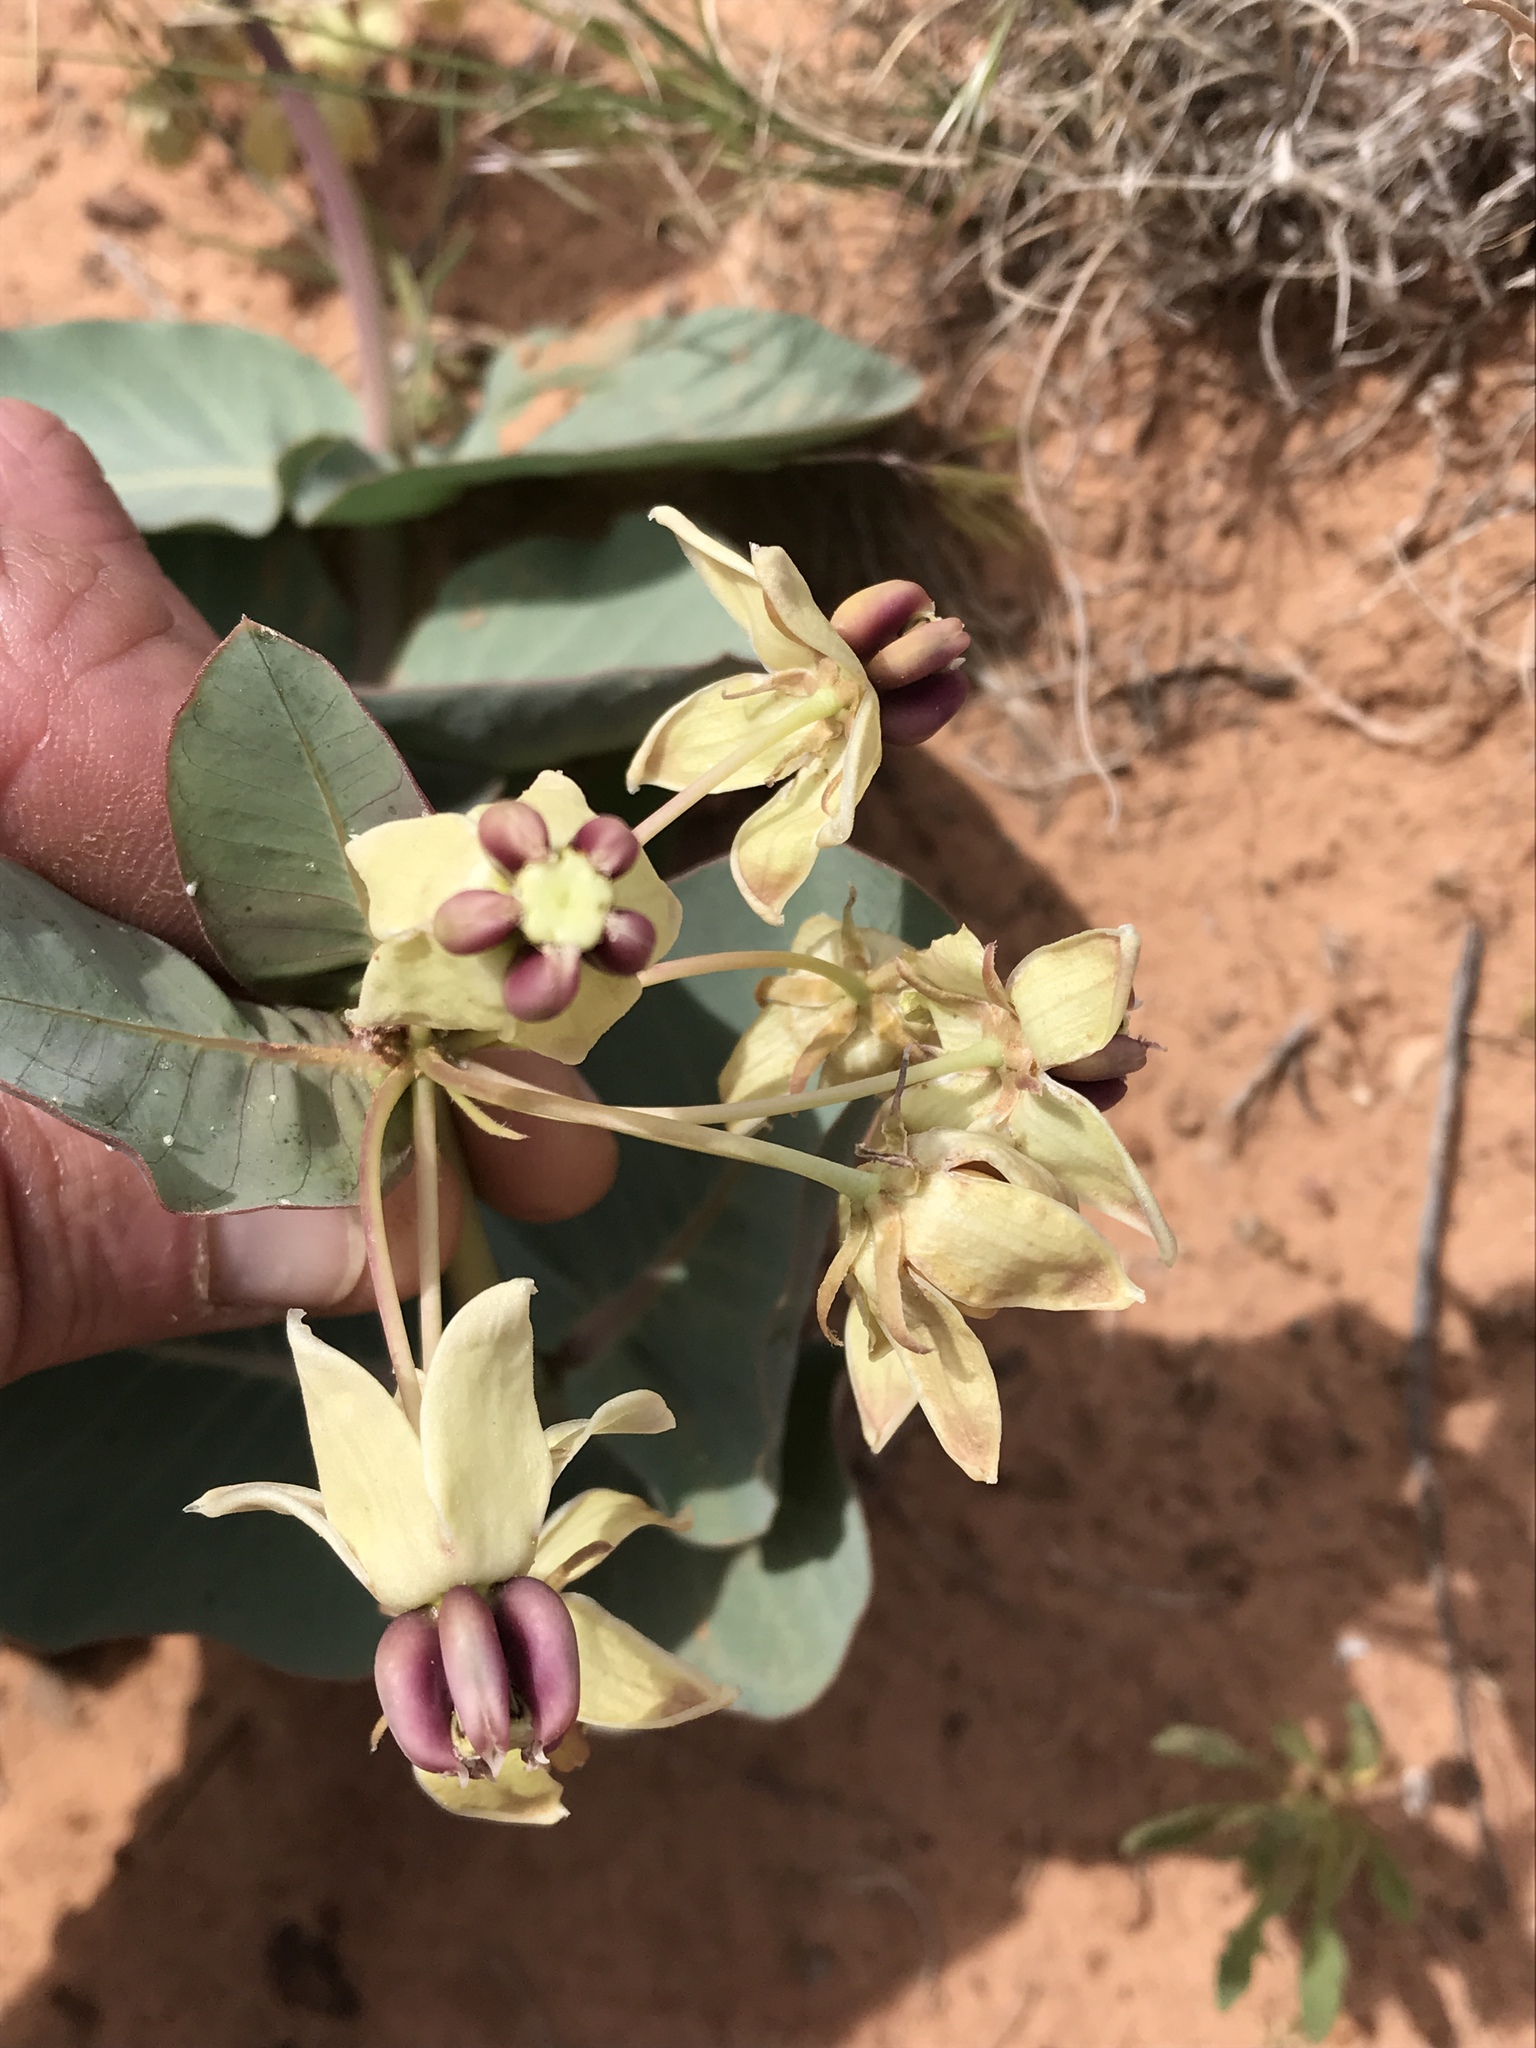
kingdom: Plantae
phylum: Tracheophyta
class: Magnoliopsida
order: Gentianales
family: Apocynaceae
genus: Asclepias
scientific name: Asclepias cryptoceras
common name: Humboldt mountains milkweed
